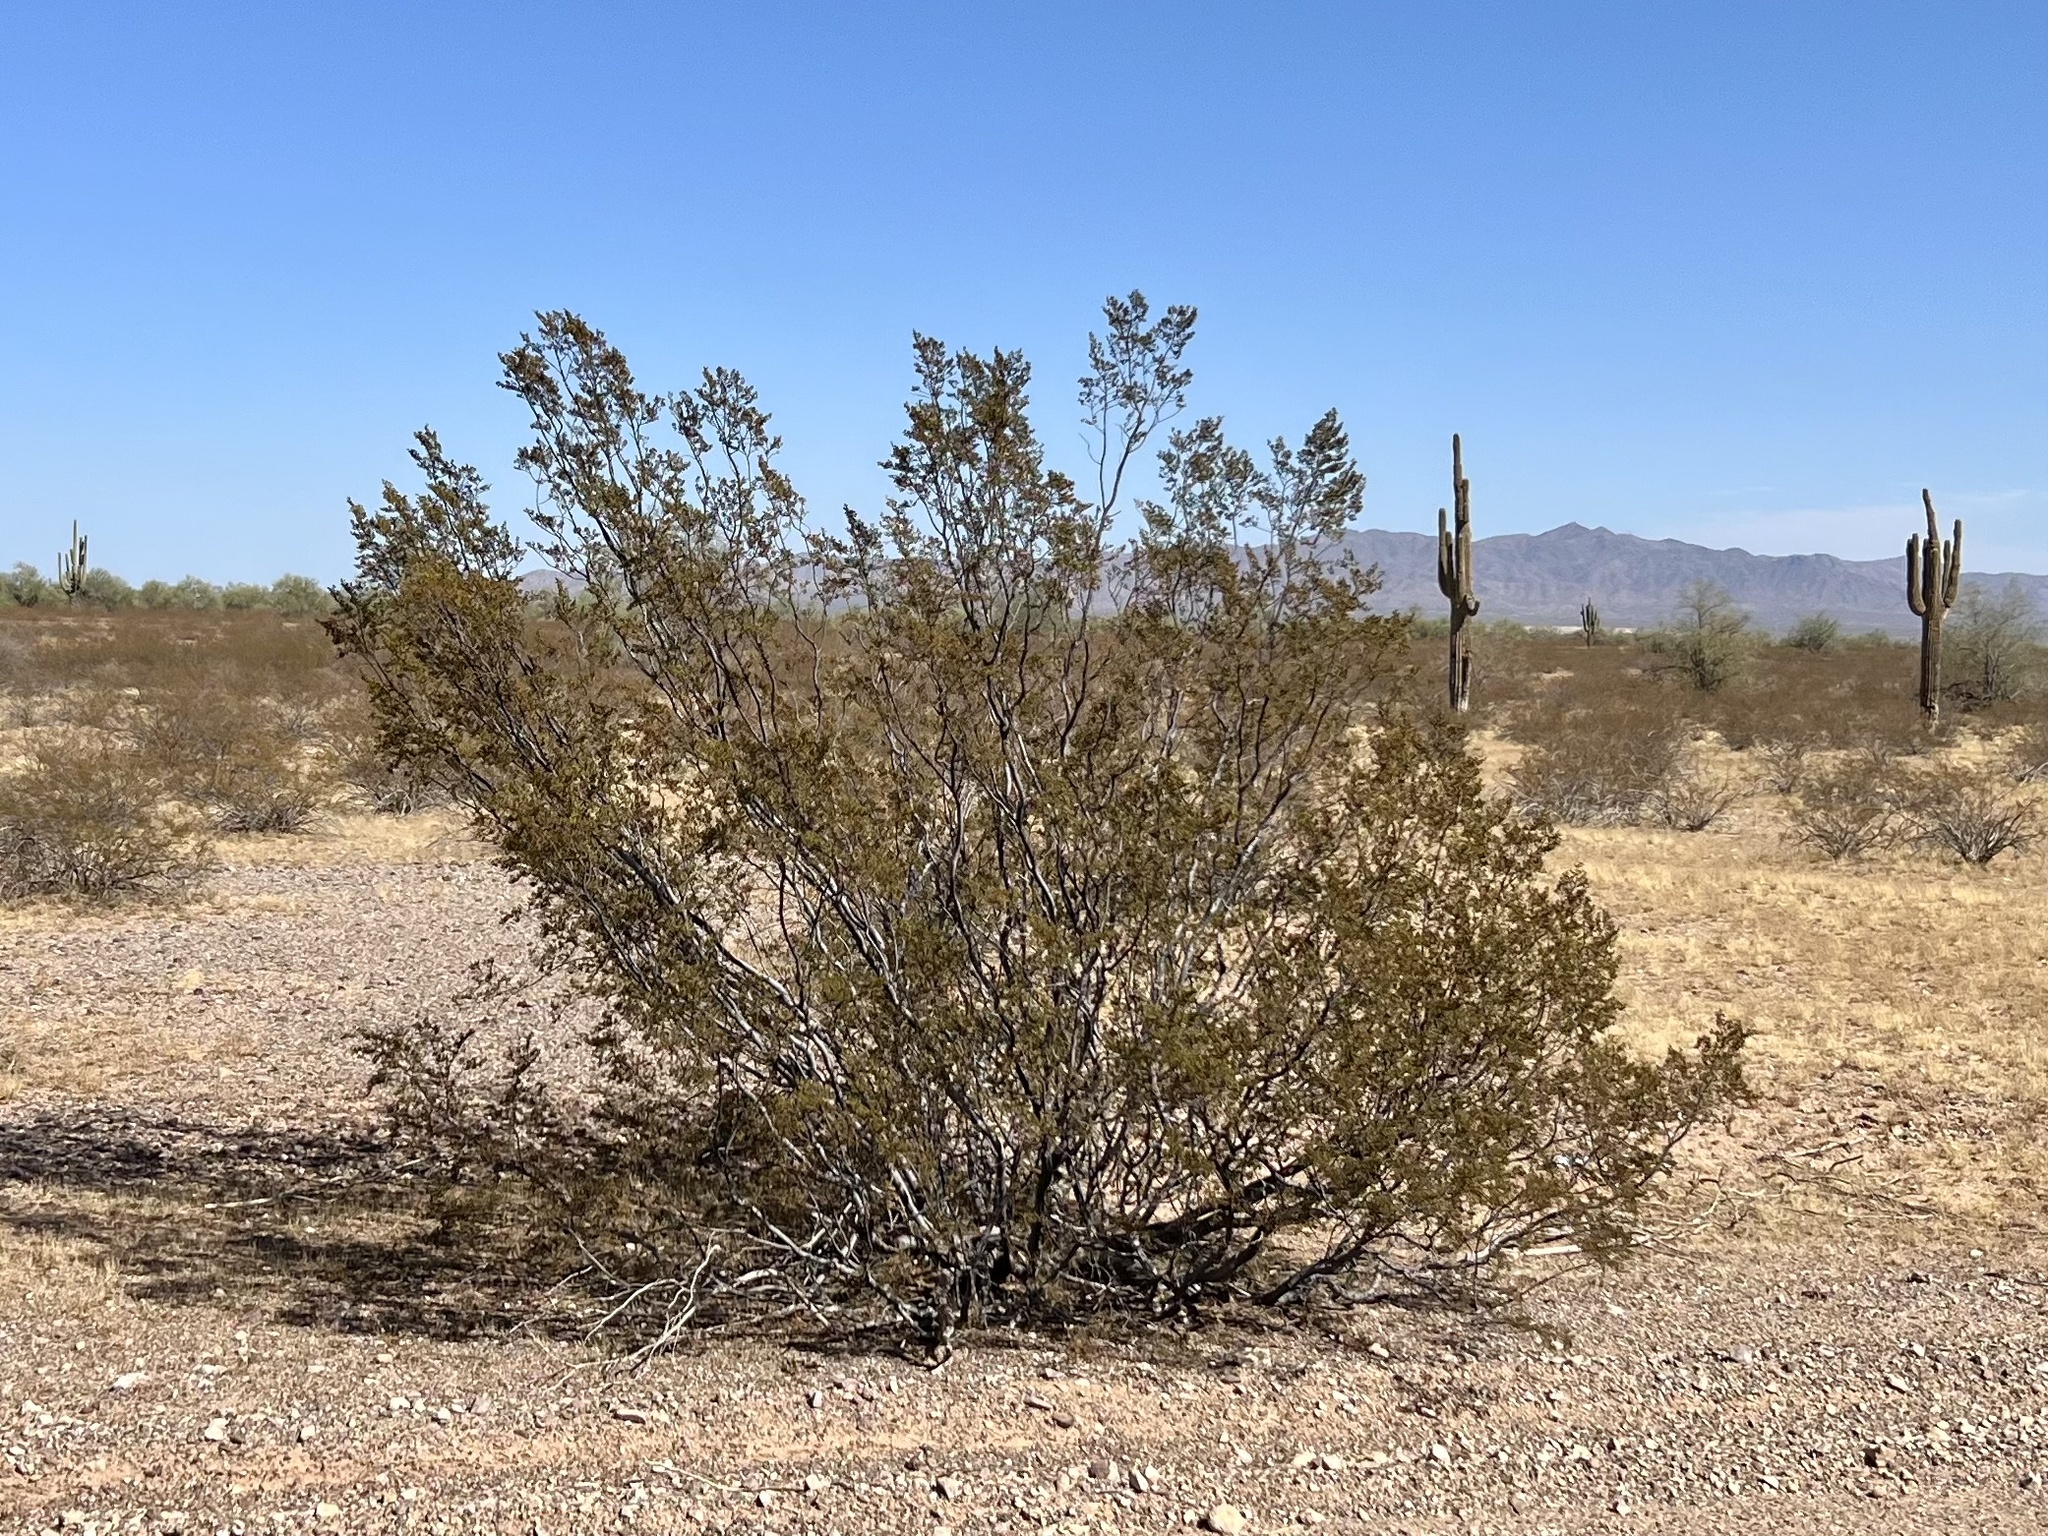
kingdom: Plantae
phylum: Tracheophyta
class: Magnoliopsida
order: Zygophyllales
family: Zygophyllaceae
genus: Larrea
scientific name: Larrea tridentata
